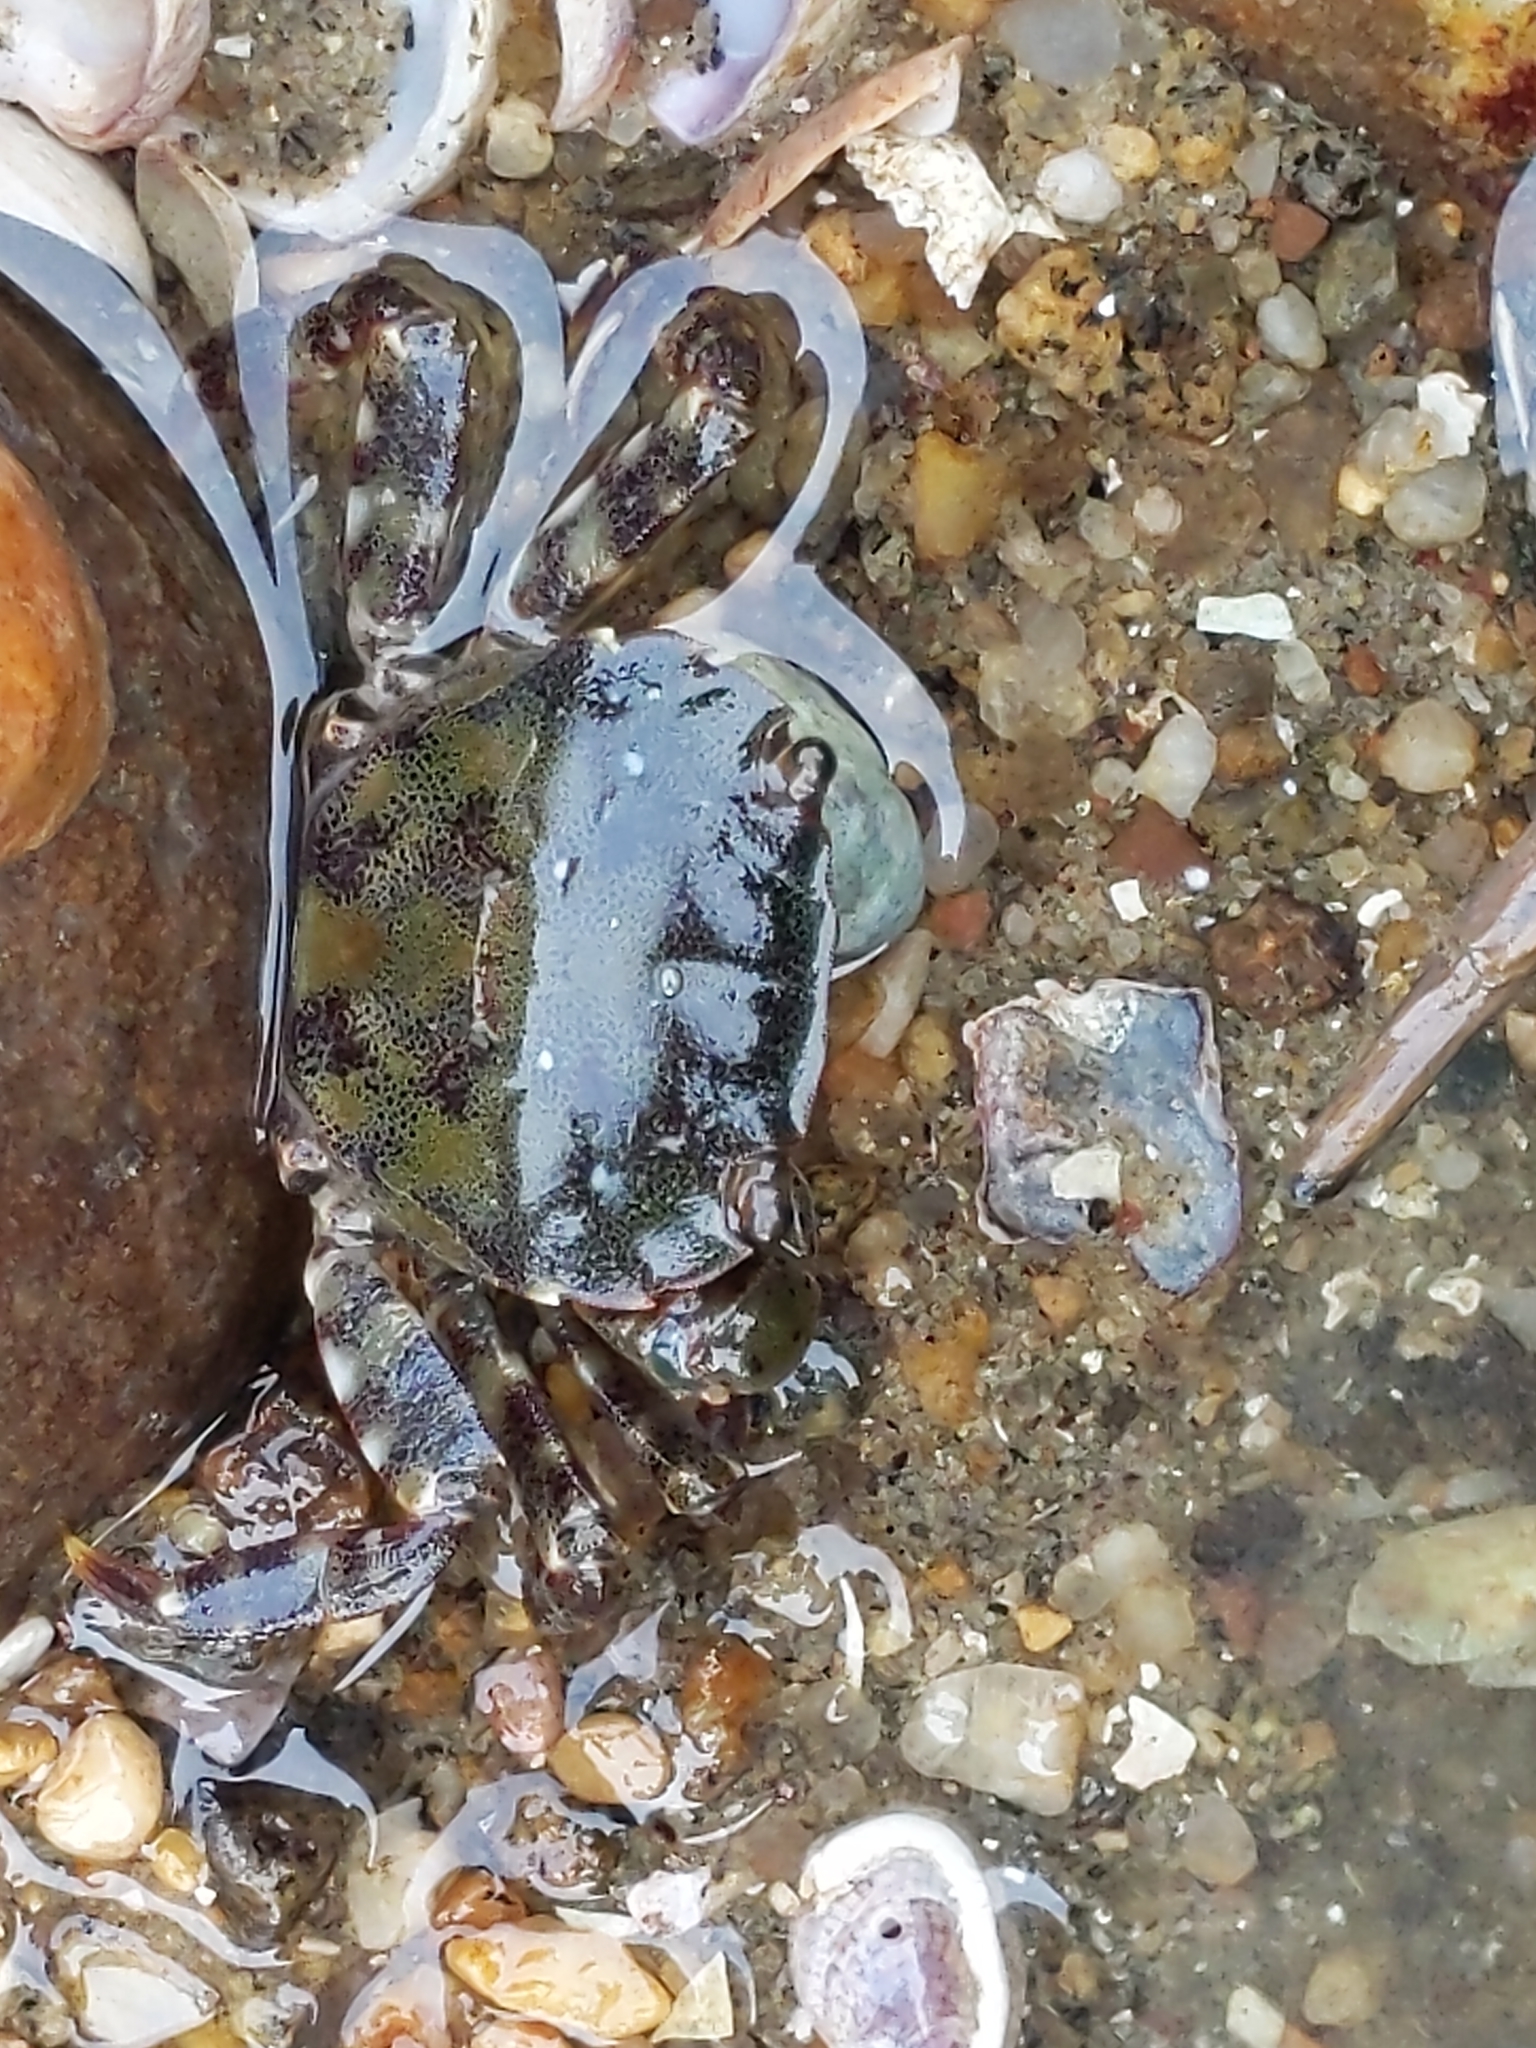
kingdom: Animalia
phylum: Arthropoda
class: Malacostraca
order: Decapoda
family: Varunidae
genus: Hemigrapsus
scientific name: Hemigrapsus sanguineus
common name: Asian shore crab
